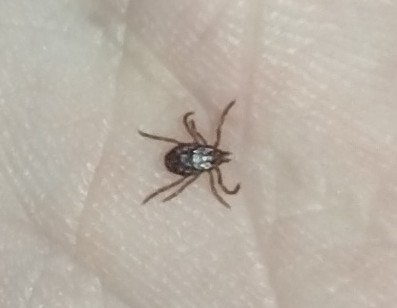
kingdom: Animalia
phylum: Arthropoda
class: Arachnida
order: Ixodida
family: Ixodidae
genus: Rhipicephalus
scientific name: Rhipicephalus sanguineus
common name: Brown dog tick
